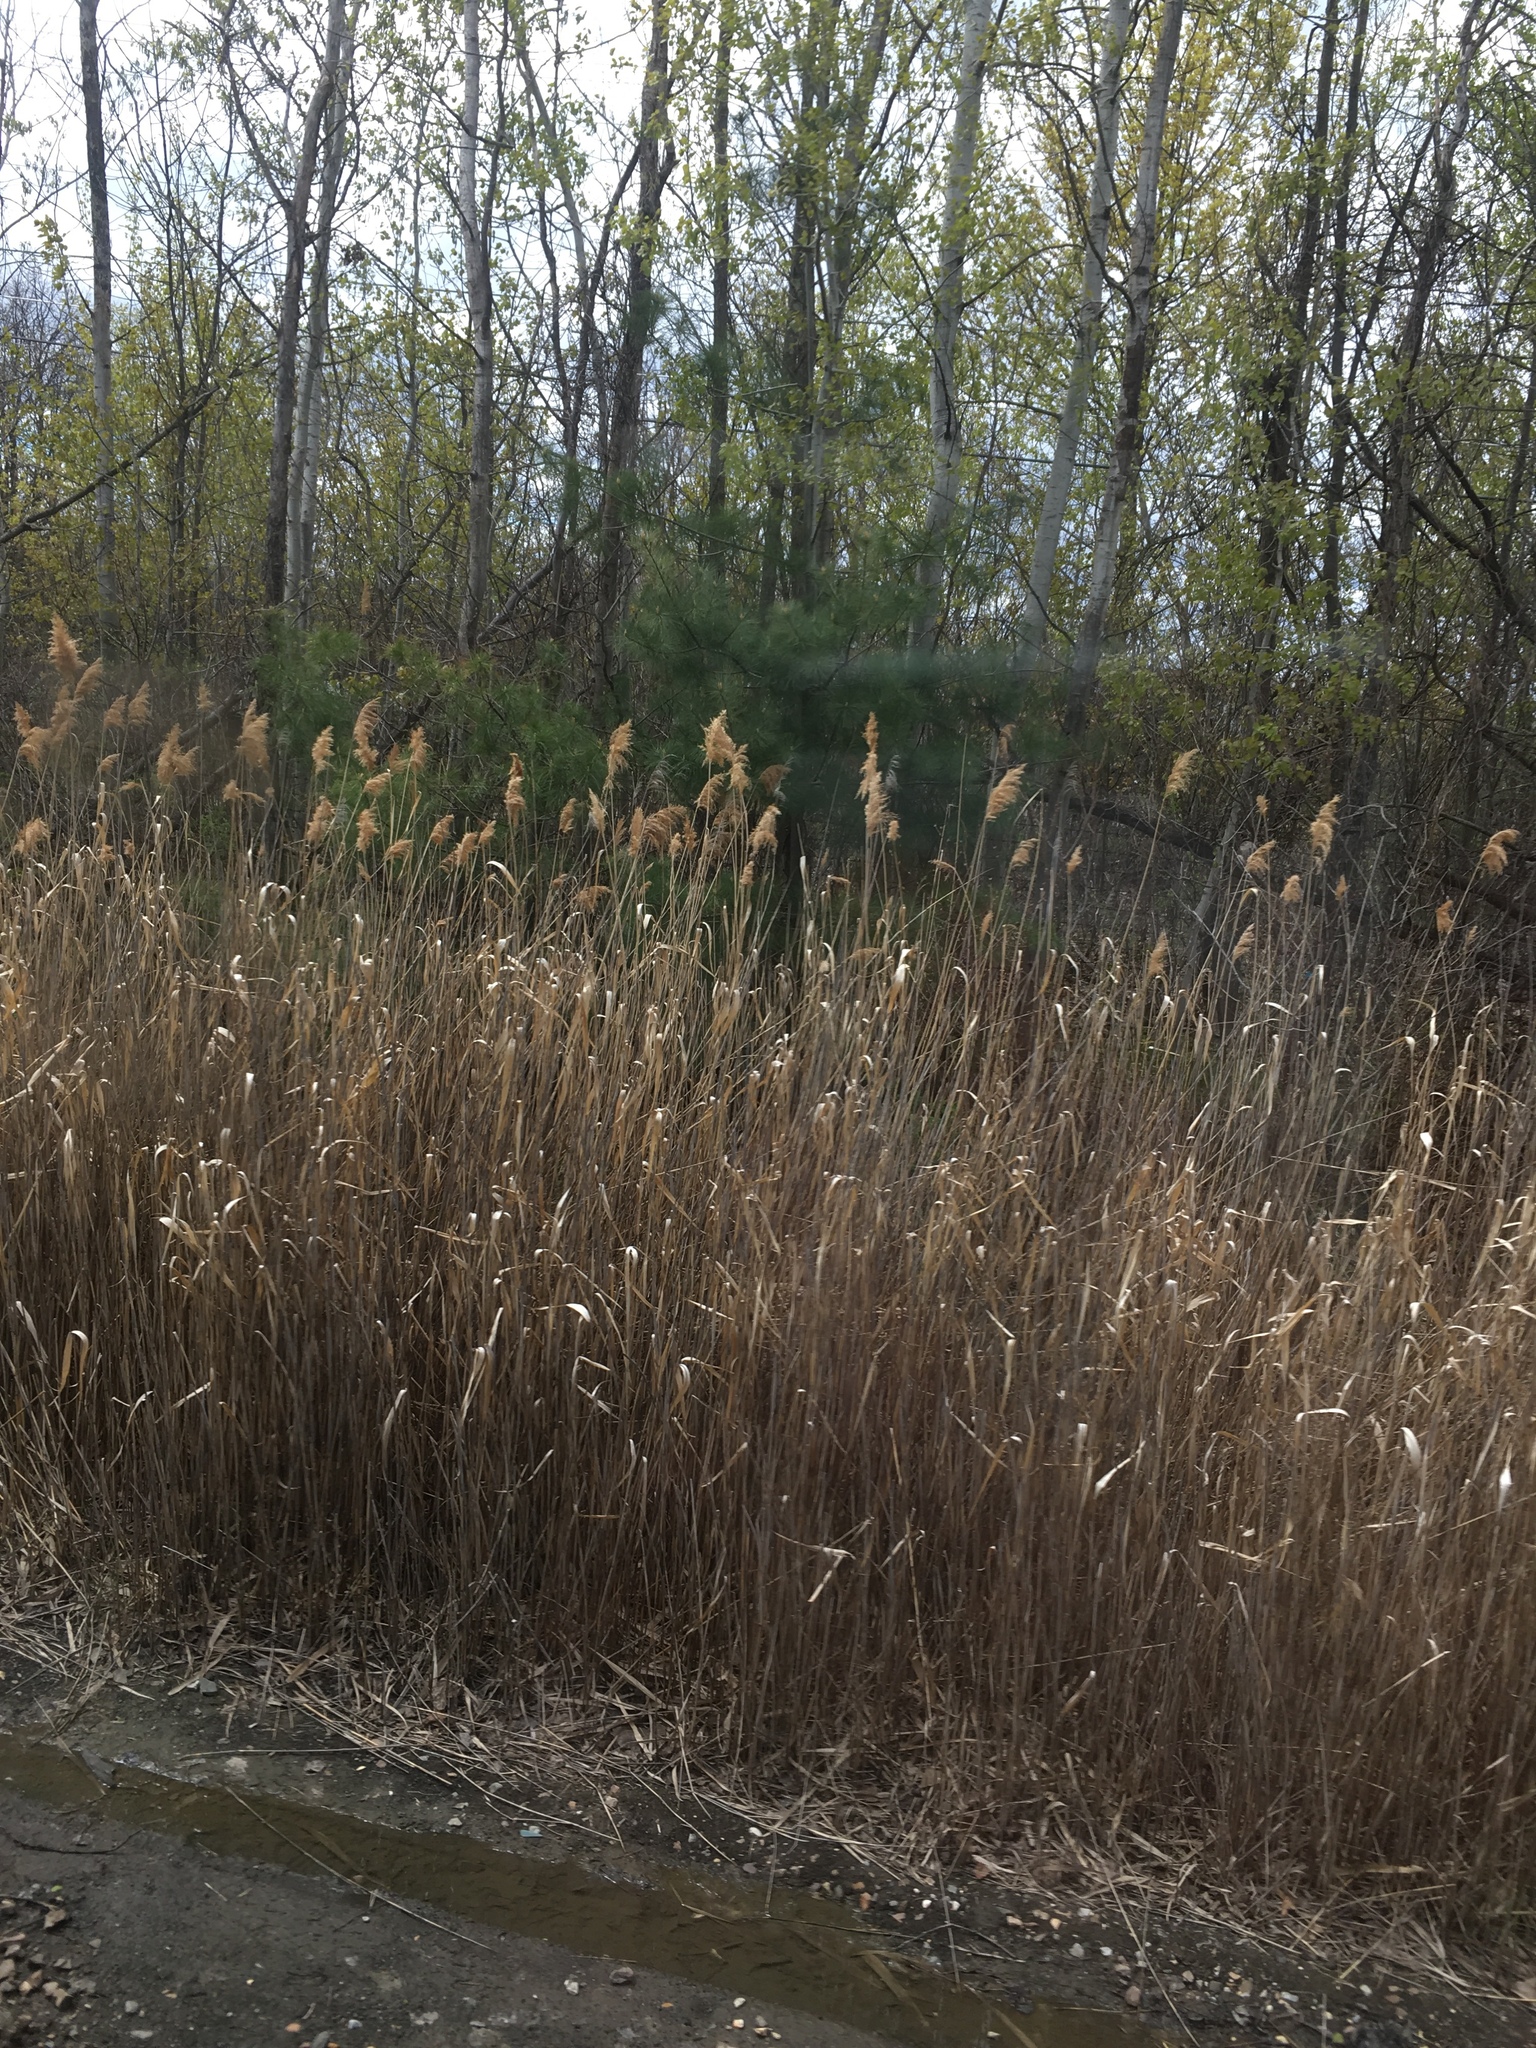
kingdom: Plantae
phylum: Tracheophyta
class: Liliopsida
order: Poales
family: Poaceae
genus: Phragmites
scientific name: Phragmites australis
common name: Common reed
